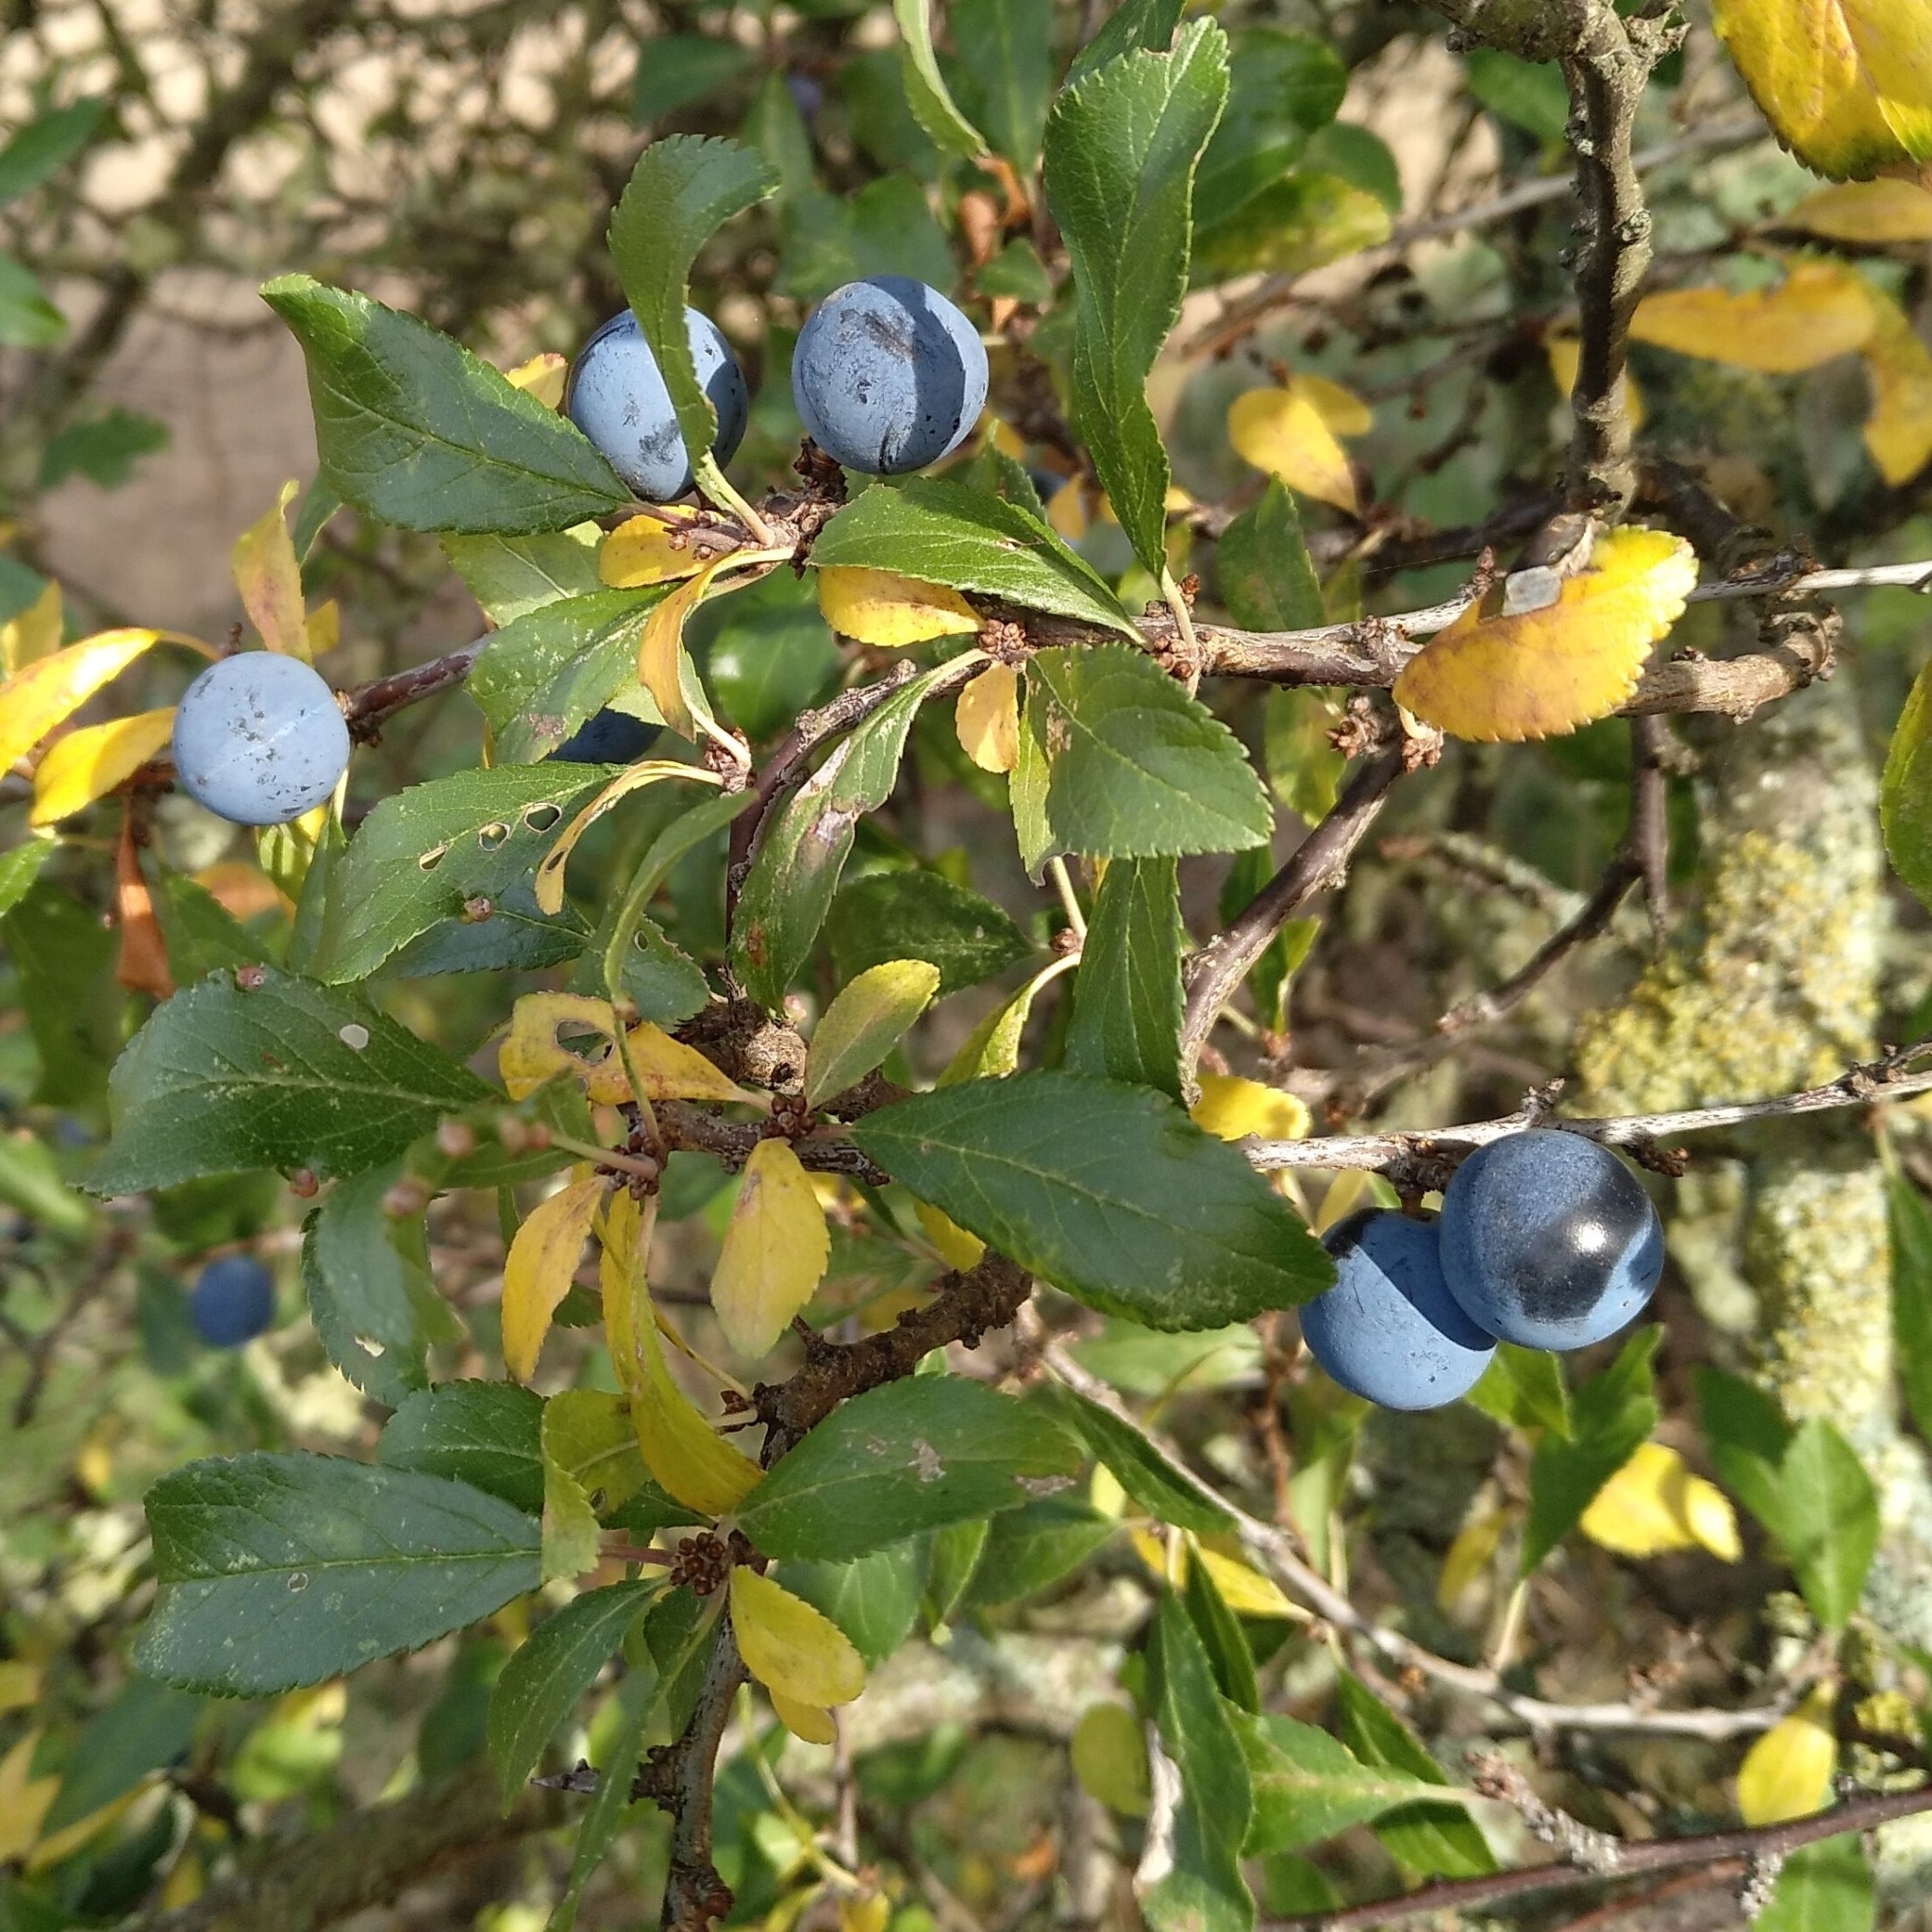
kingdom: Plantae
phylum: Tracheophyta
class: Magnoliopsida
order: Rosales
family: Rosaceae
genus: Prunus
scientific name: Prunus spinosa
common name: Blackthorn
